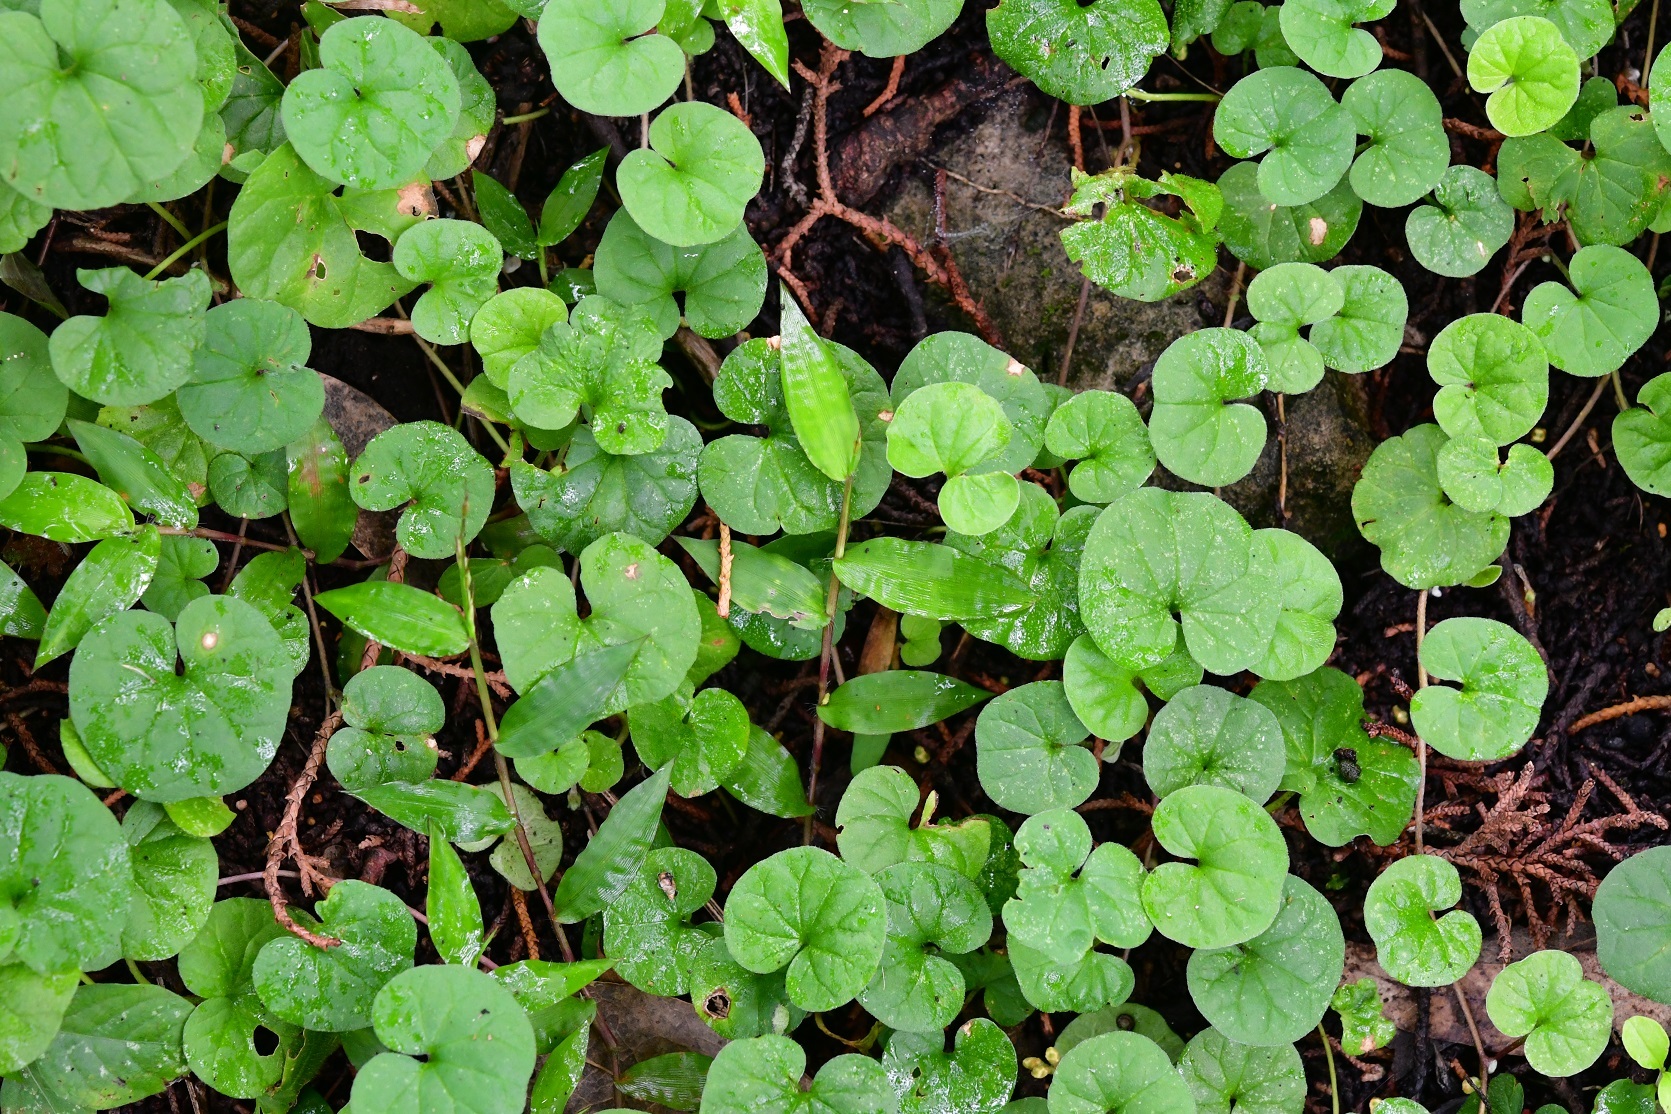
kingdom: Plantae
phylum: Tracheophyta
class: Magnoliopsida
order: Solanales
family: Convolvulaceae
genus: Dichondra
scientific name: Dichondra sericea
